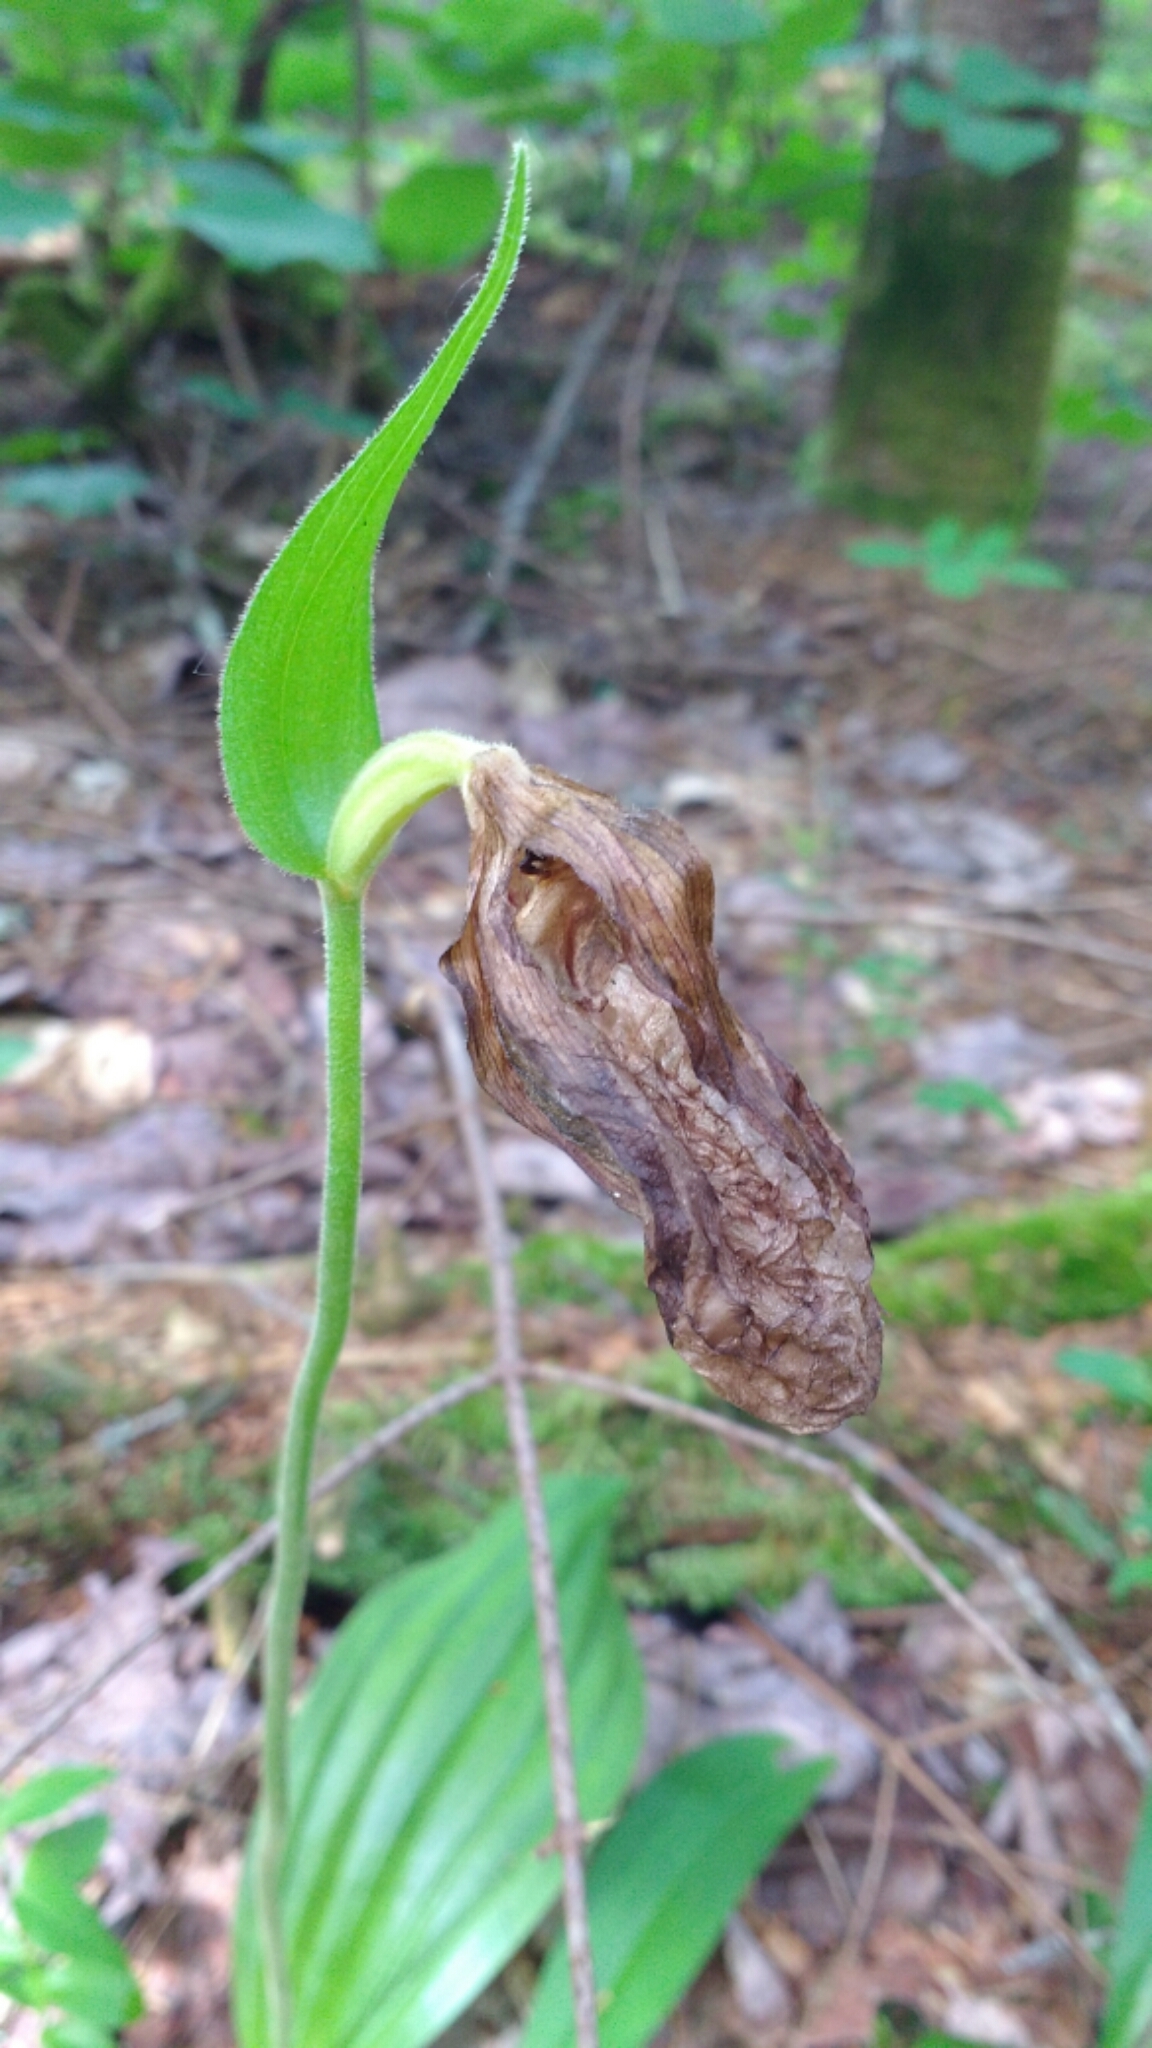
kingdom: Plantae
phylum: Tracheophyta
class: Liliopsida
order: Asparagales
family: Orchidaceae
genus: Cypripedium
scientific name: Cypripedium acaule
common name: Pink lady's-slipper
